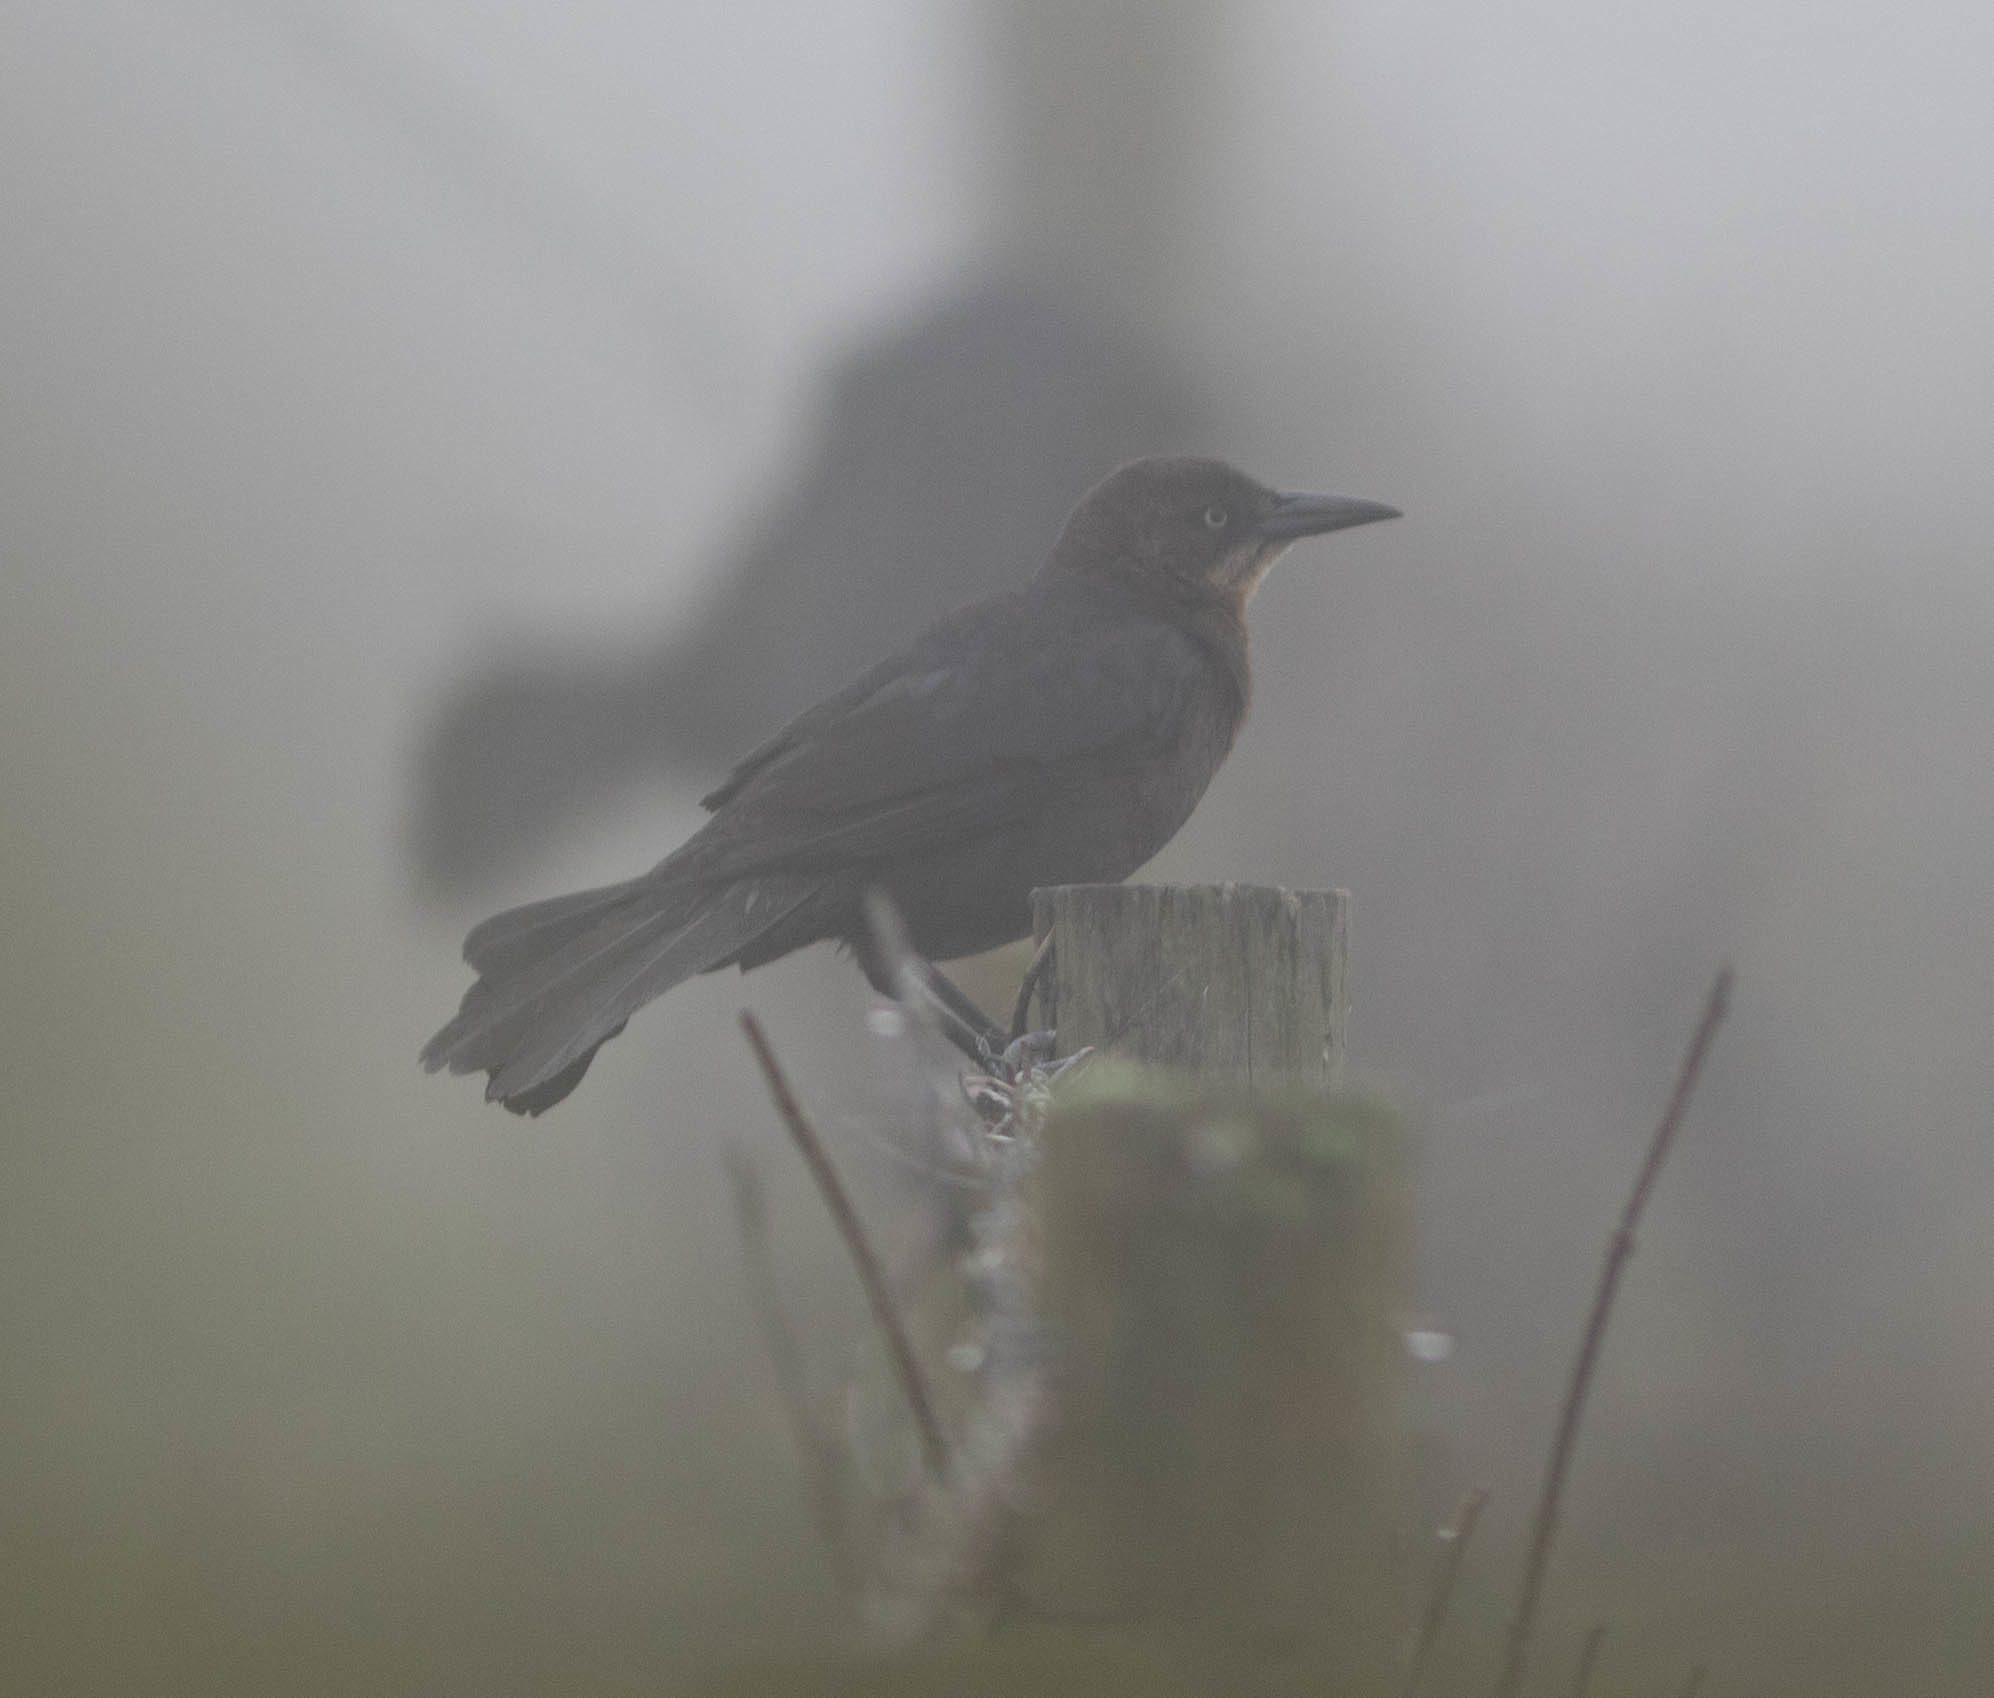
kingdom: Animalia
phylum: Chordata
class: Aves
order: Passeriformes
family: Icteridae
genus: Quiscalus
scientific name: Quiscalus mexicanus
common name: Great-tailed grackle
